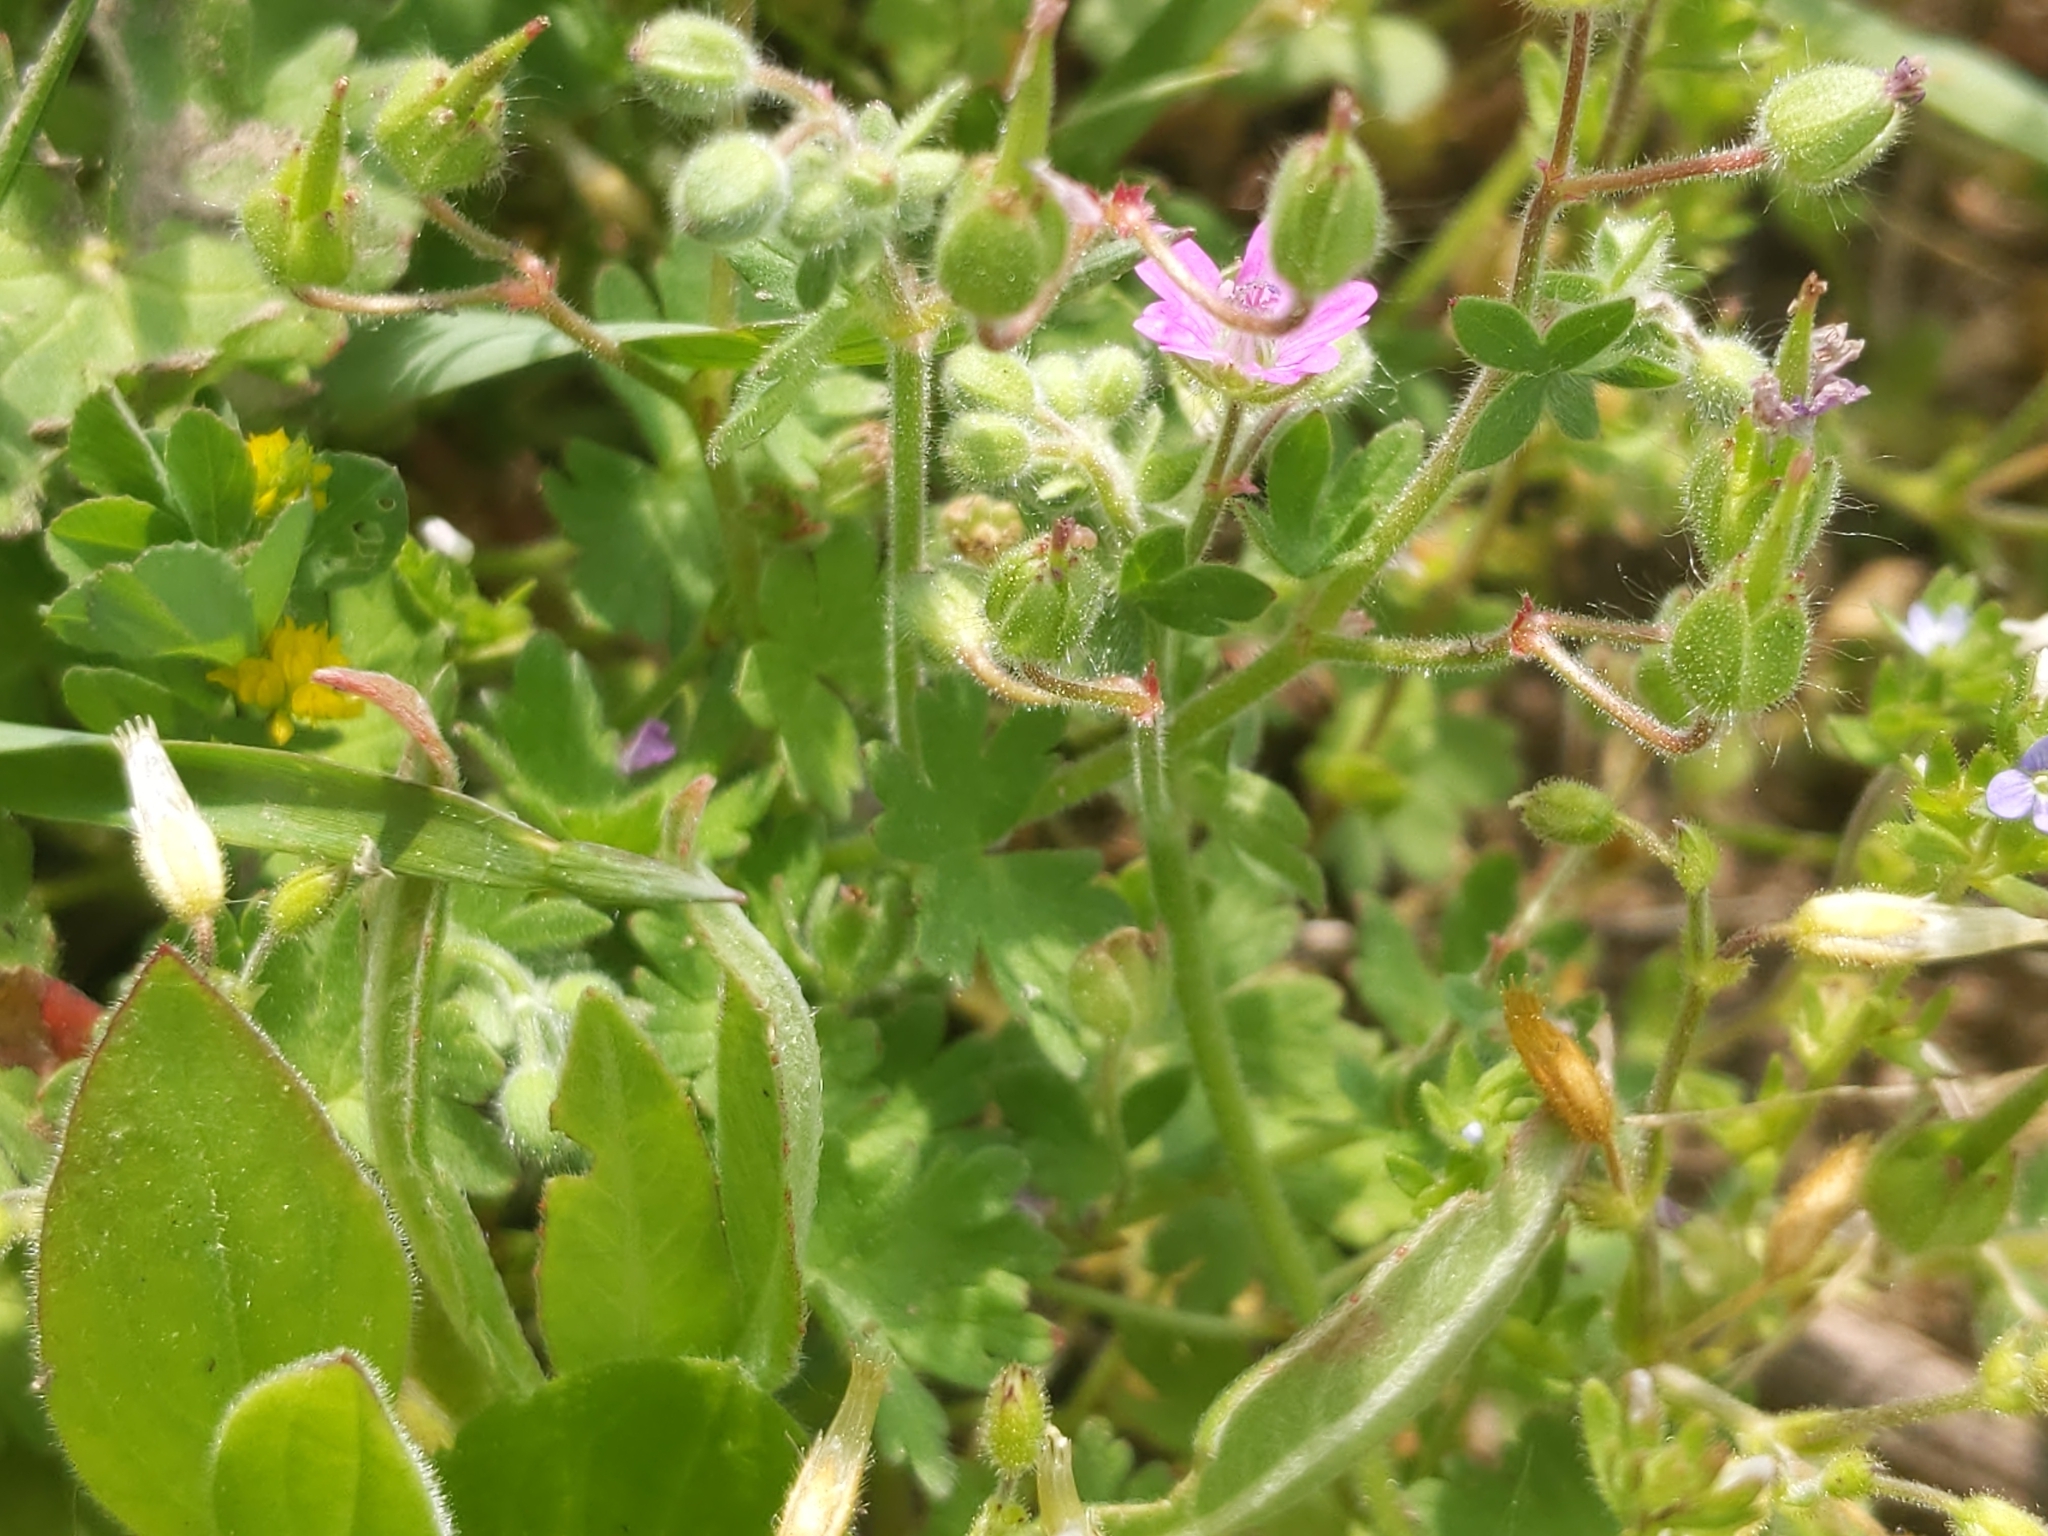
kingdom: Plantae
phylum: Tracheophyta
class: Magnoliopsida
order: Geraniales
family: Geraniaceae
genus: Geranium
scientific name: Geranium molle
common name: Dove's-foot crane's-bill
